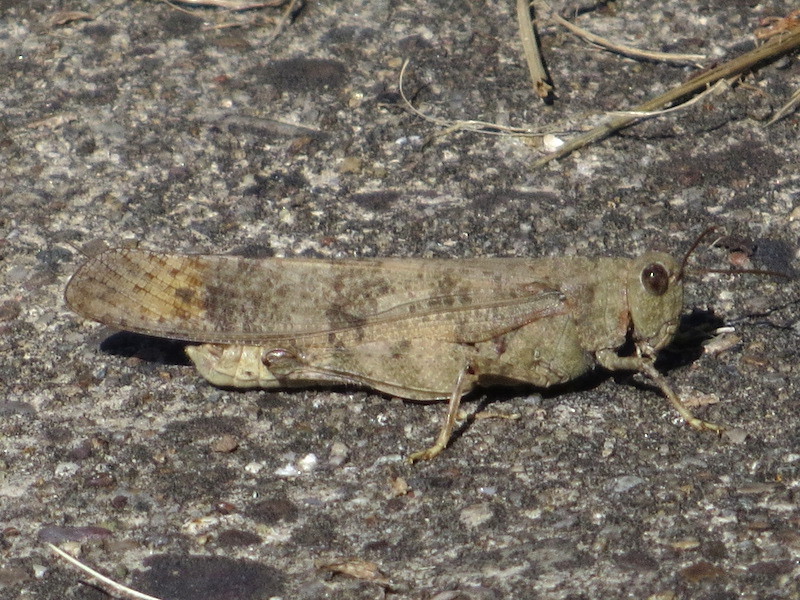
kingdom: Animalia
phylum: Arthropoda
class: Insecta
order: Orthoptera
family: Acrididae
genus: Dissosteira
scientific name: Dissosteira carolina
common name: Carolina grasshopper
